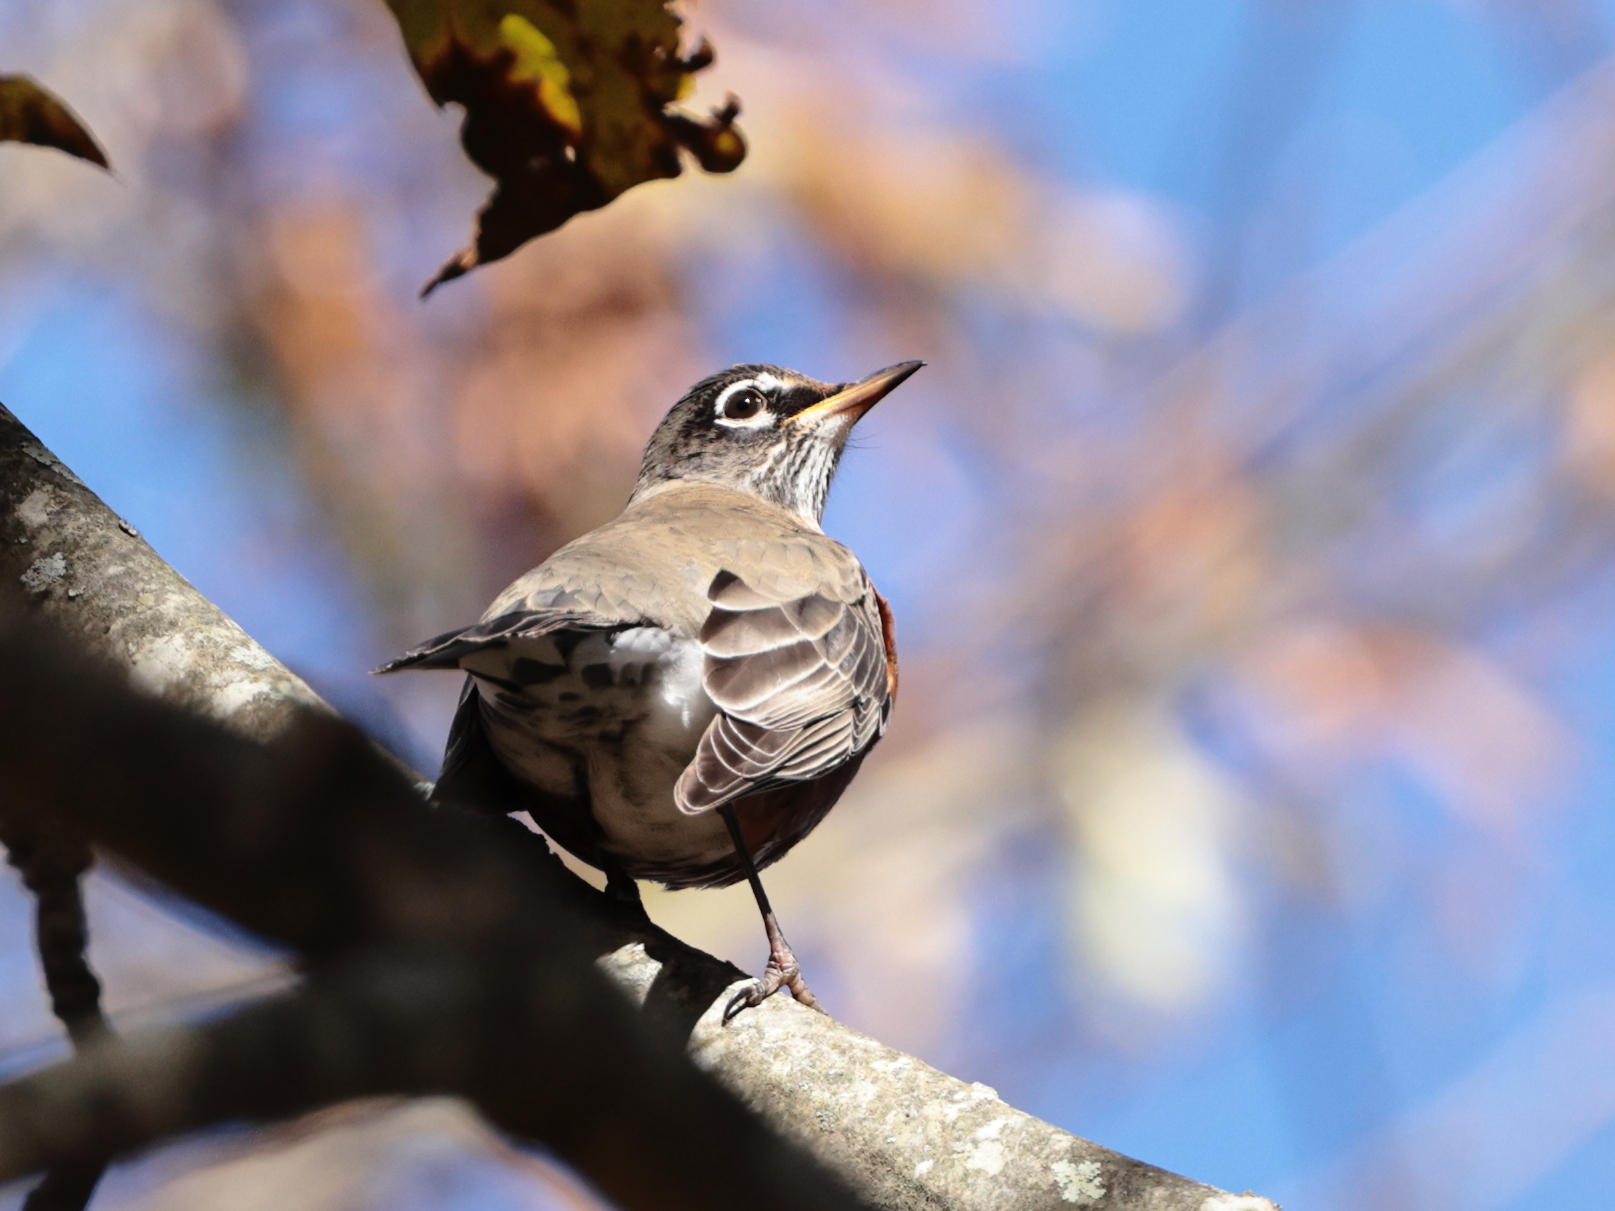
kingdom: Animalia
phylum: Chordata
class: Aves
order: Passeriformes
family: Turdidae
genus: Turdus
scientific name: Turdus migratorius
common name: American robin
